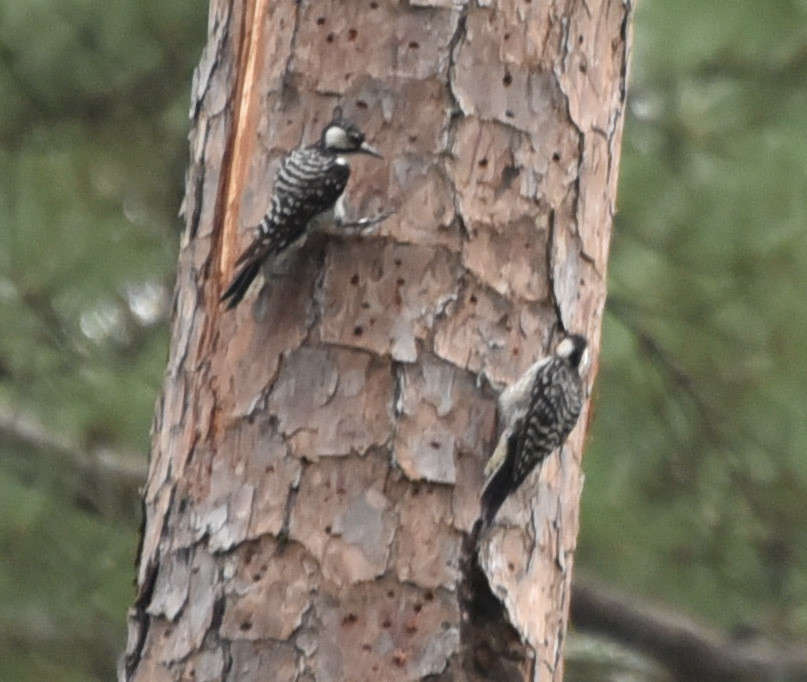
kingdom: Animalia
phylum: Chordata
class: Aves
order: Piciformes
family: Picidae
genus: Leuconotopicus
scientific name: Leuconotopicus borealis
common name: Red-cockaded woodpecker
